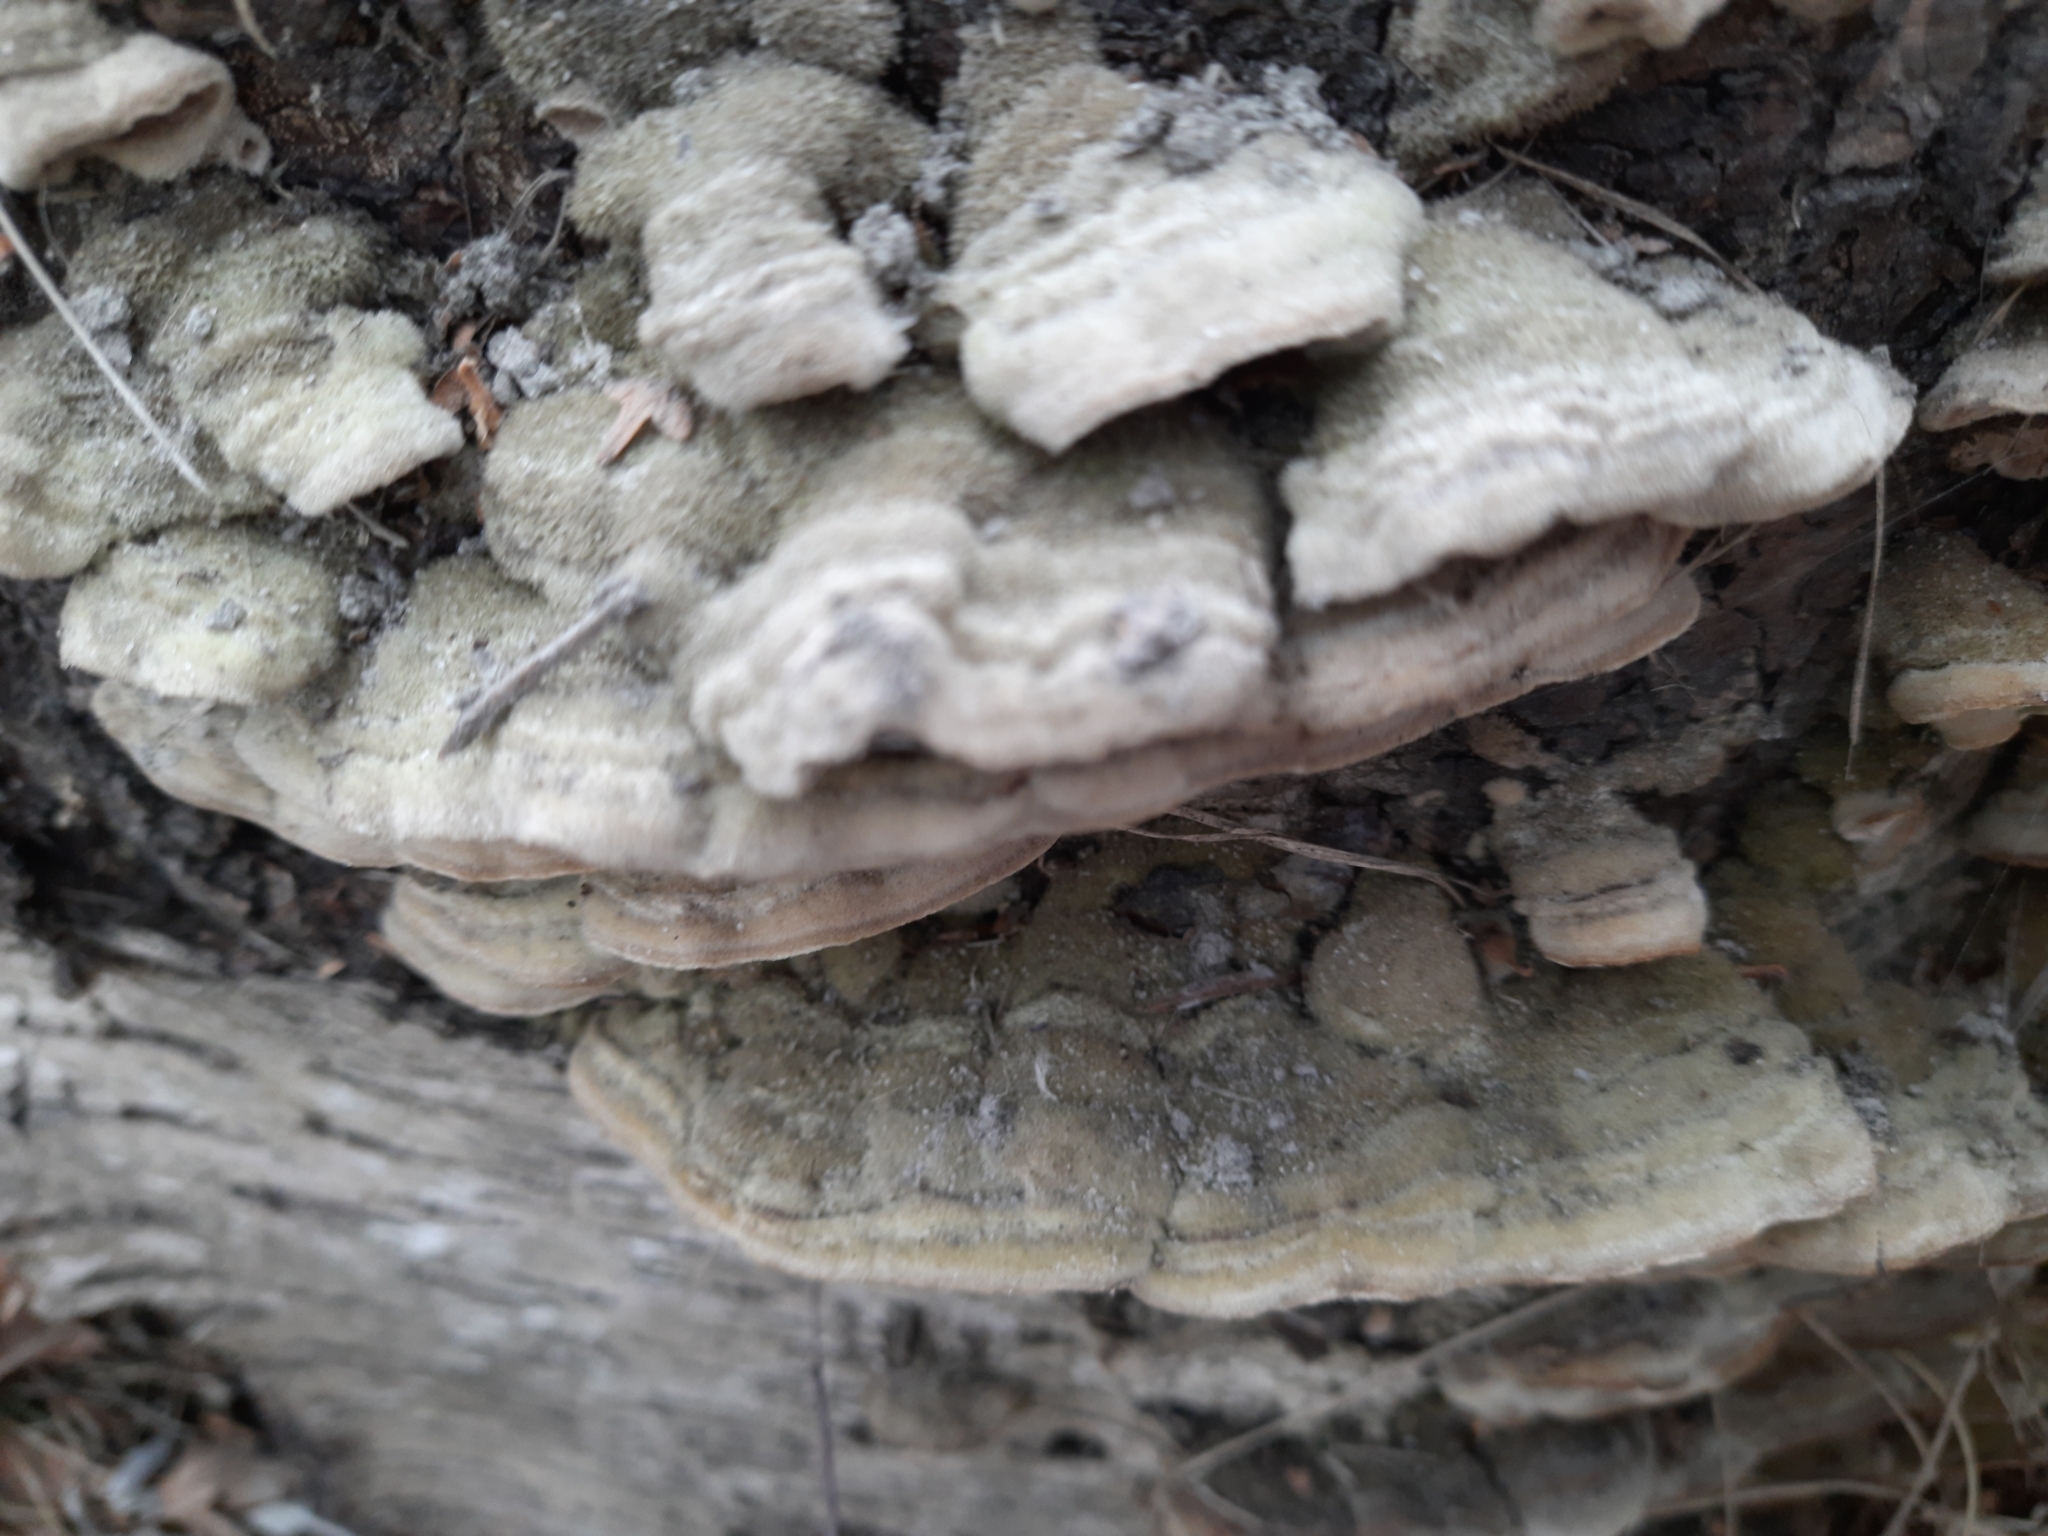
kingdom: Fungi
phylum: Basidiomycota
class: Agaricomycetes
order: Polyporales
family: Cerrenaceae
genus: Cerrena
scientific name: Cerrena unicolor
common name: Mossy maze polypore
